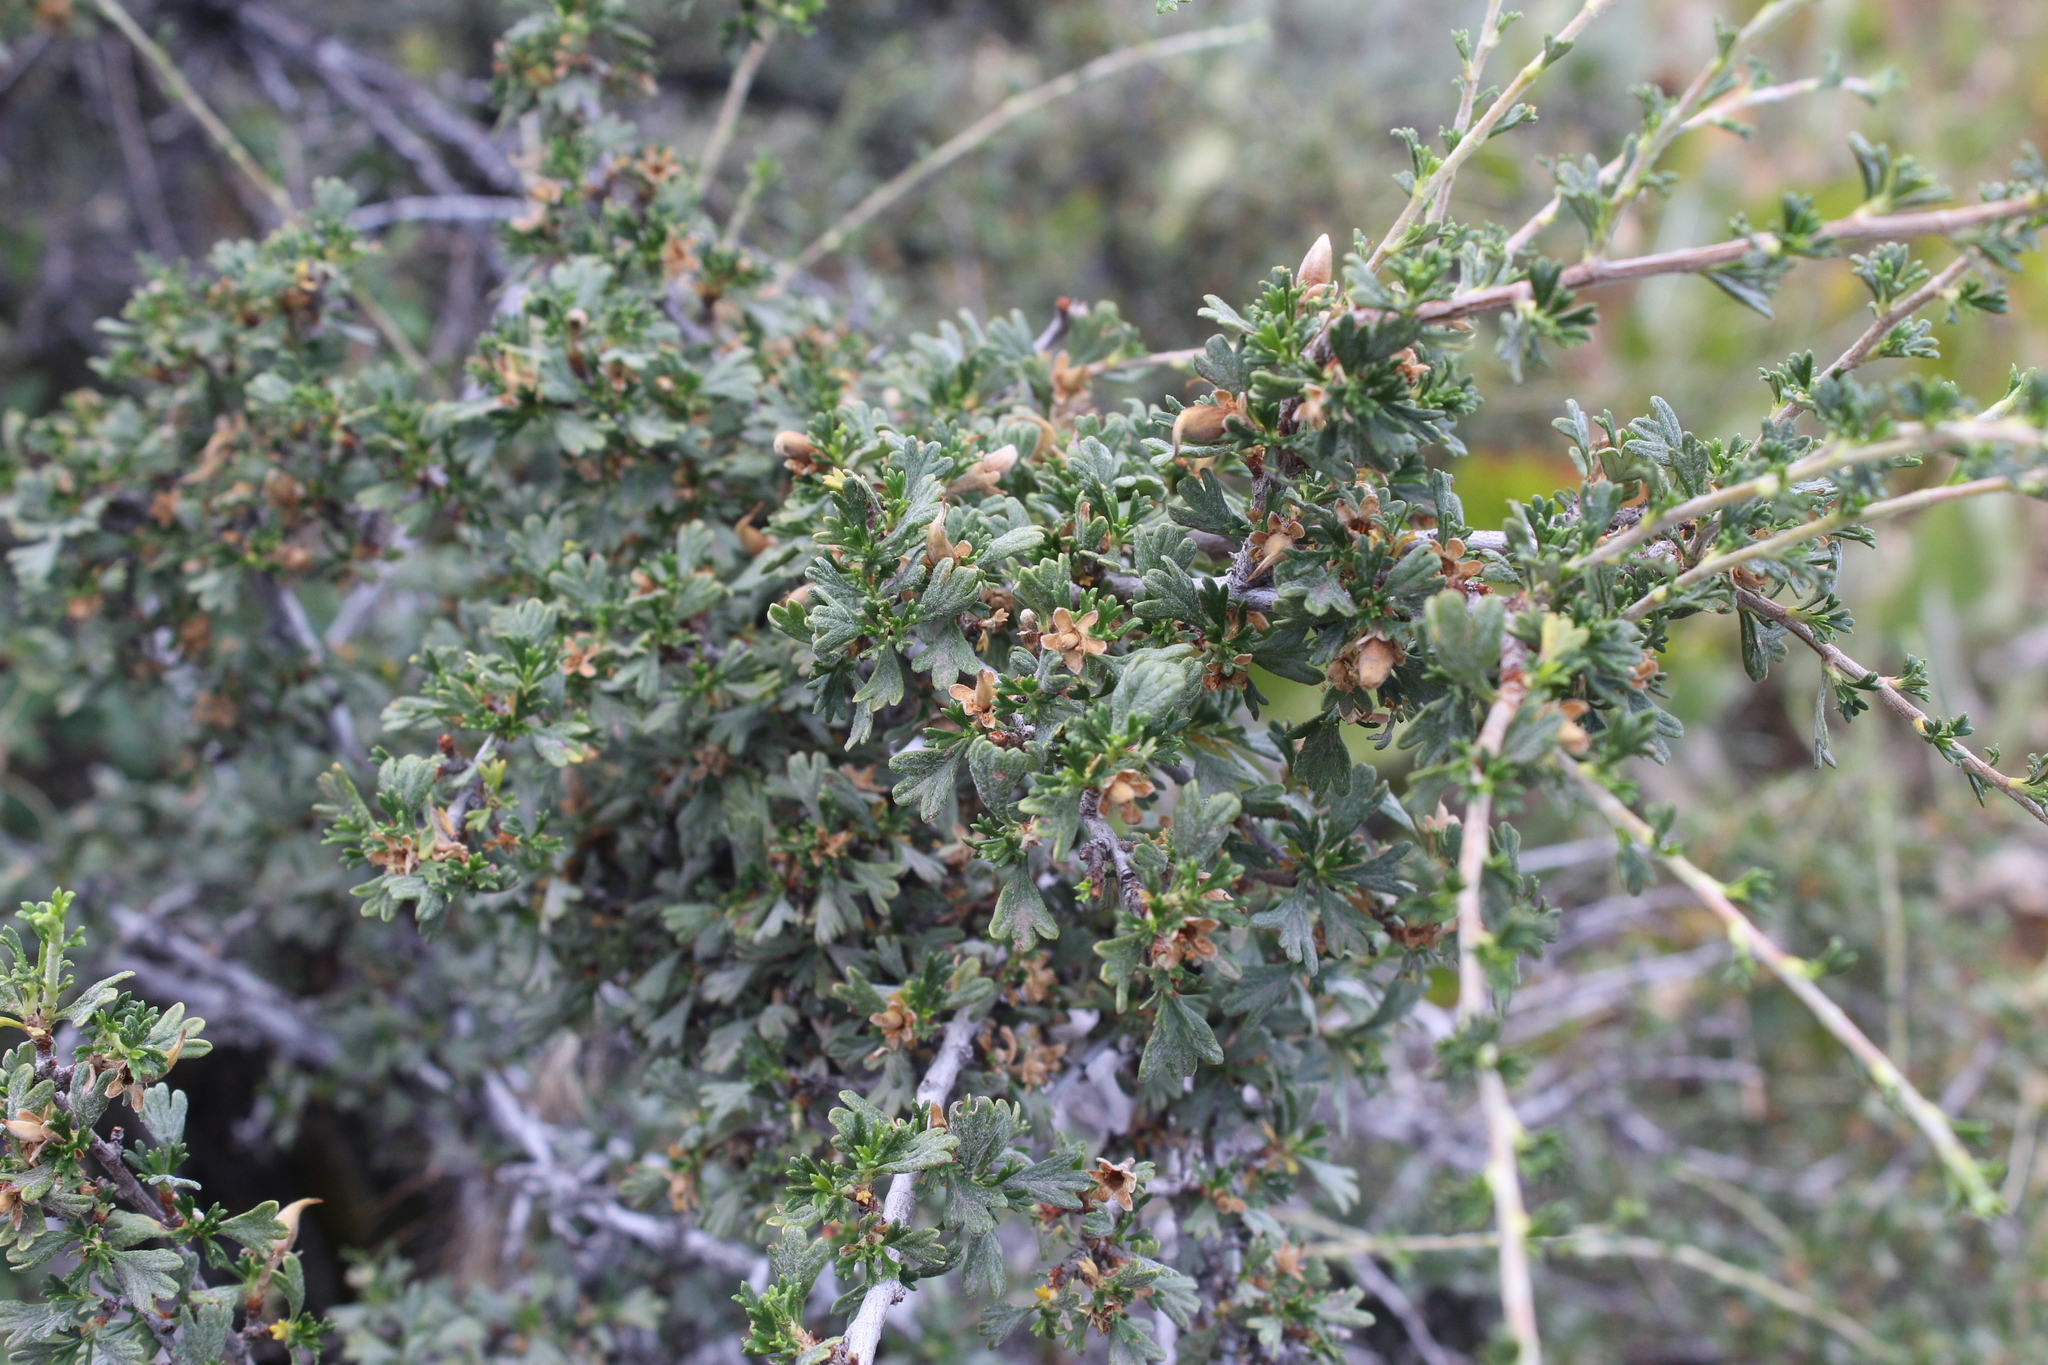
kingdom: Plantae
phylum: Tracheophyta
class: Magnoliopsida
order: Rosales
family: Rosaceae
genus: Purshia
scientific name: Purshia tridentata
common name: Antelope bitterbrush
